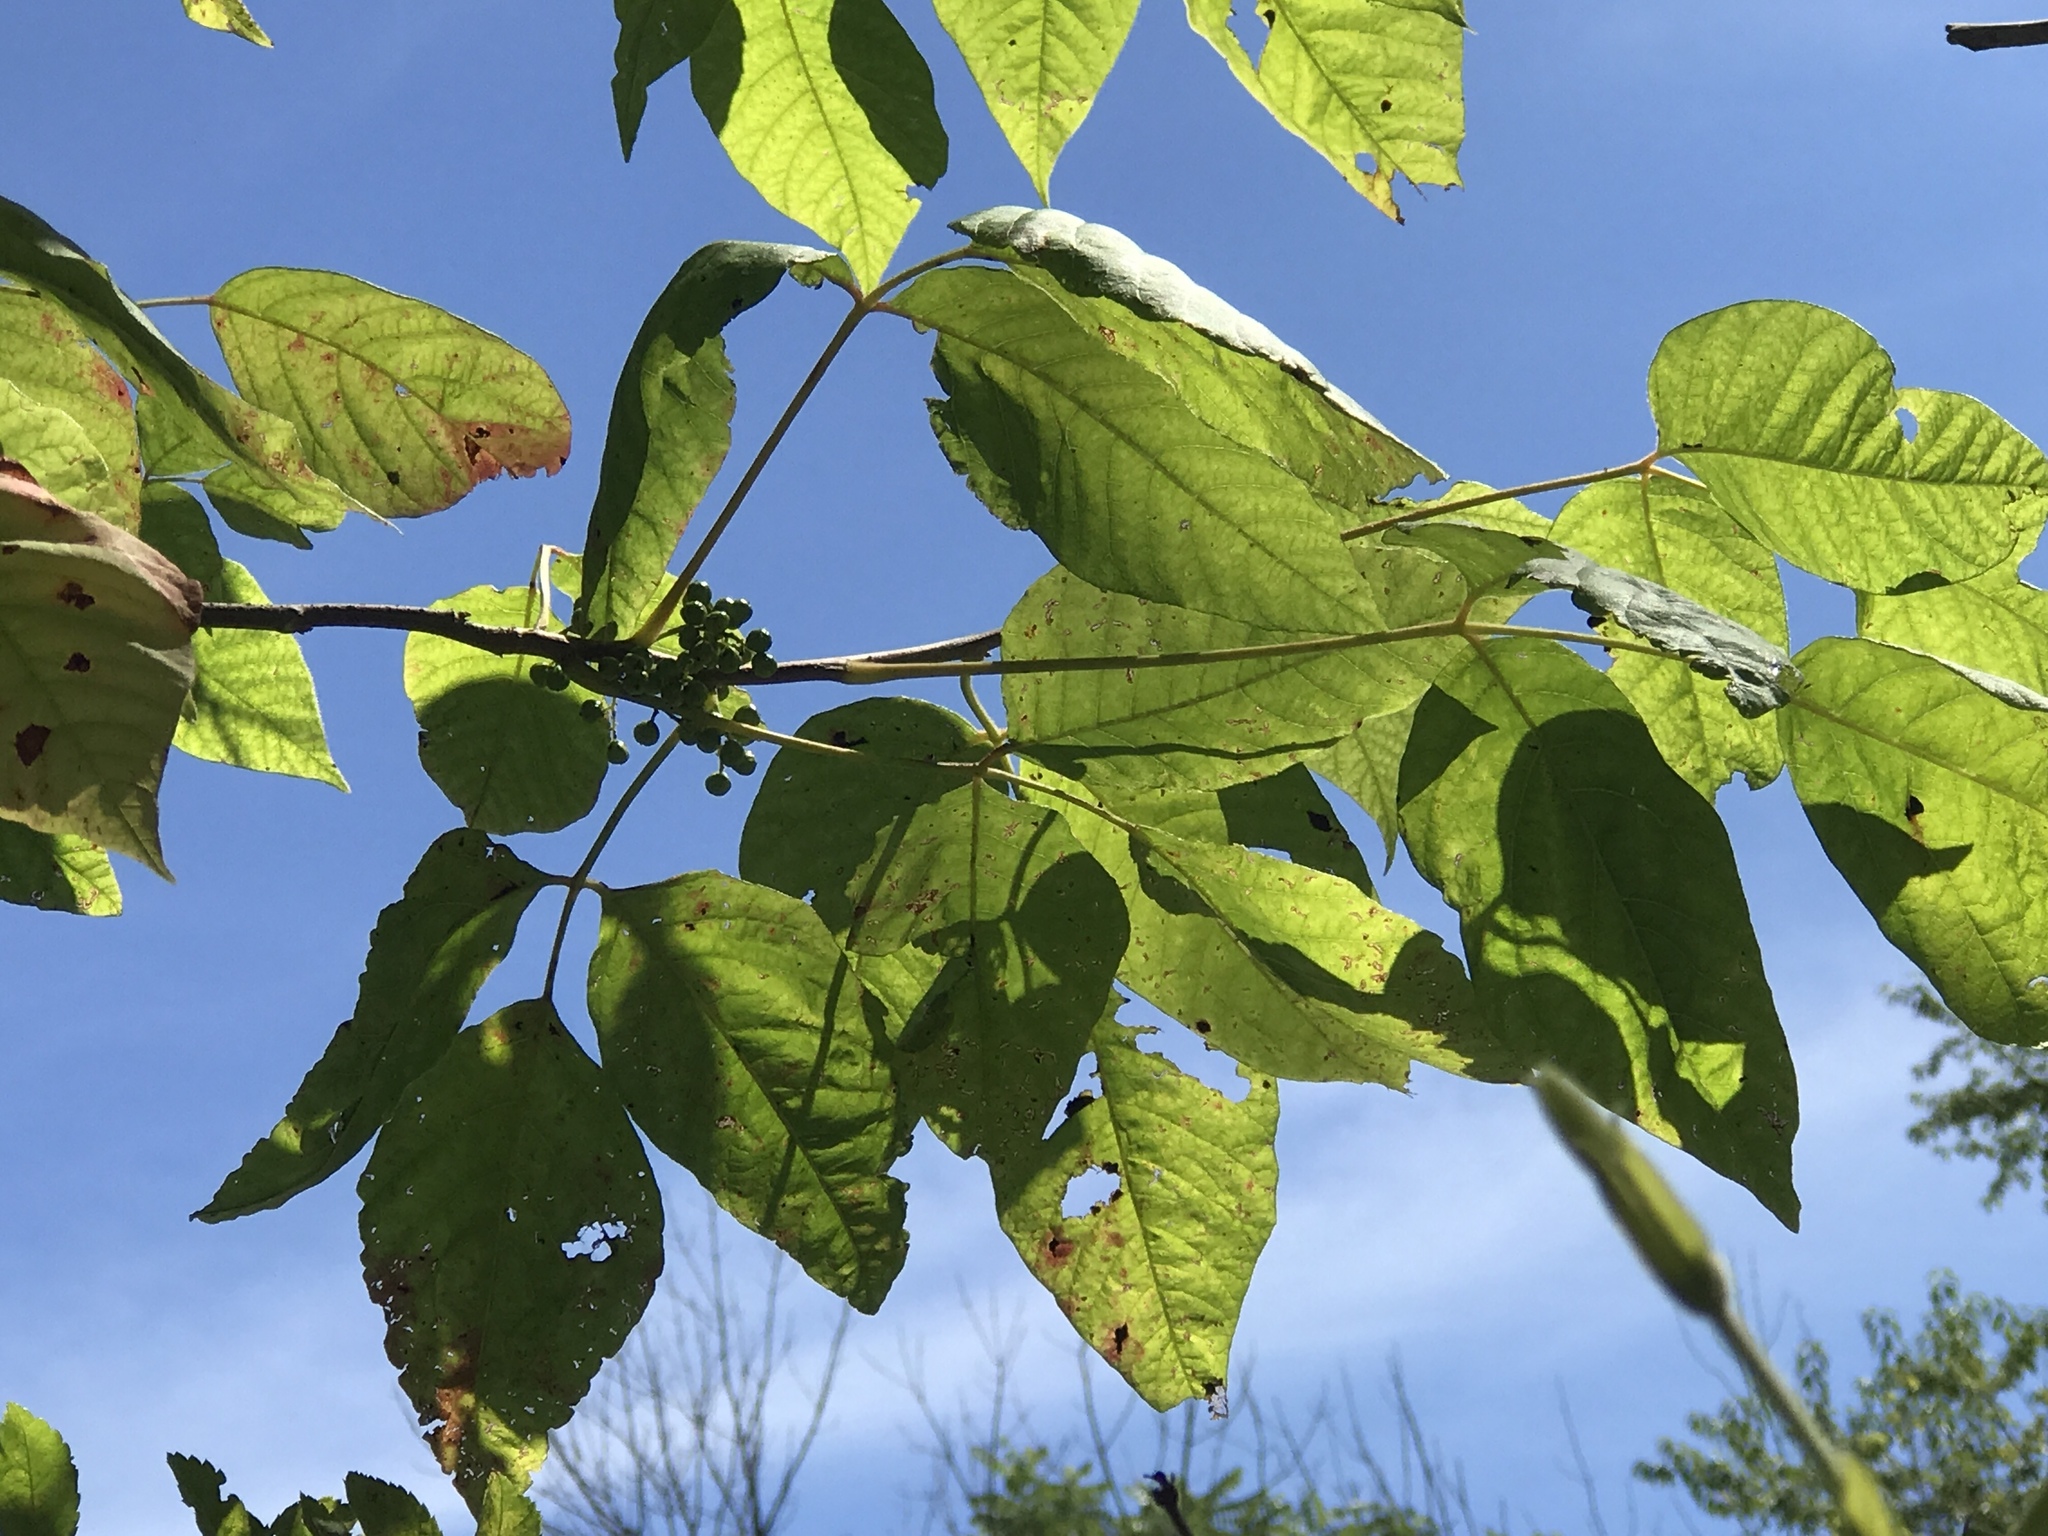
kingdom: Plantae
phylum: Tracheophyta
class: Magnoliopsida
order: Sapindales
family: Anacardiaceae
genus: Toxicodendron
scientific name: Toxicodendron radicans
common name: Poison ivy
